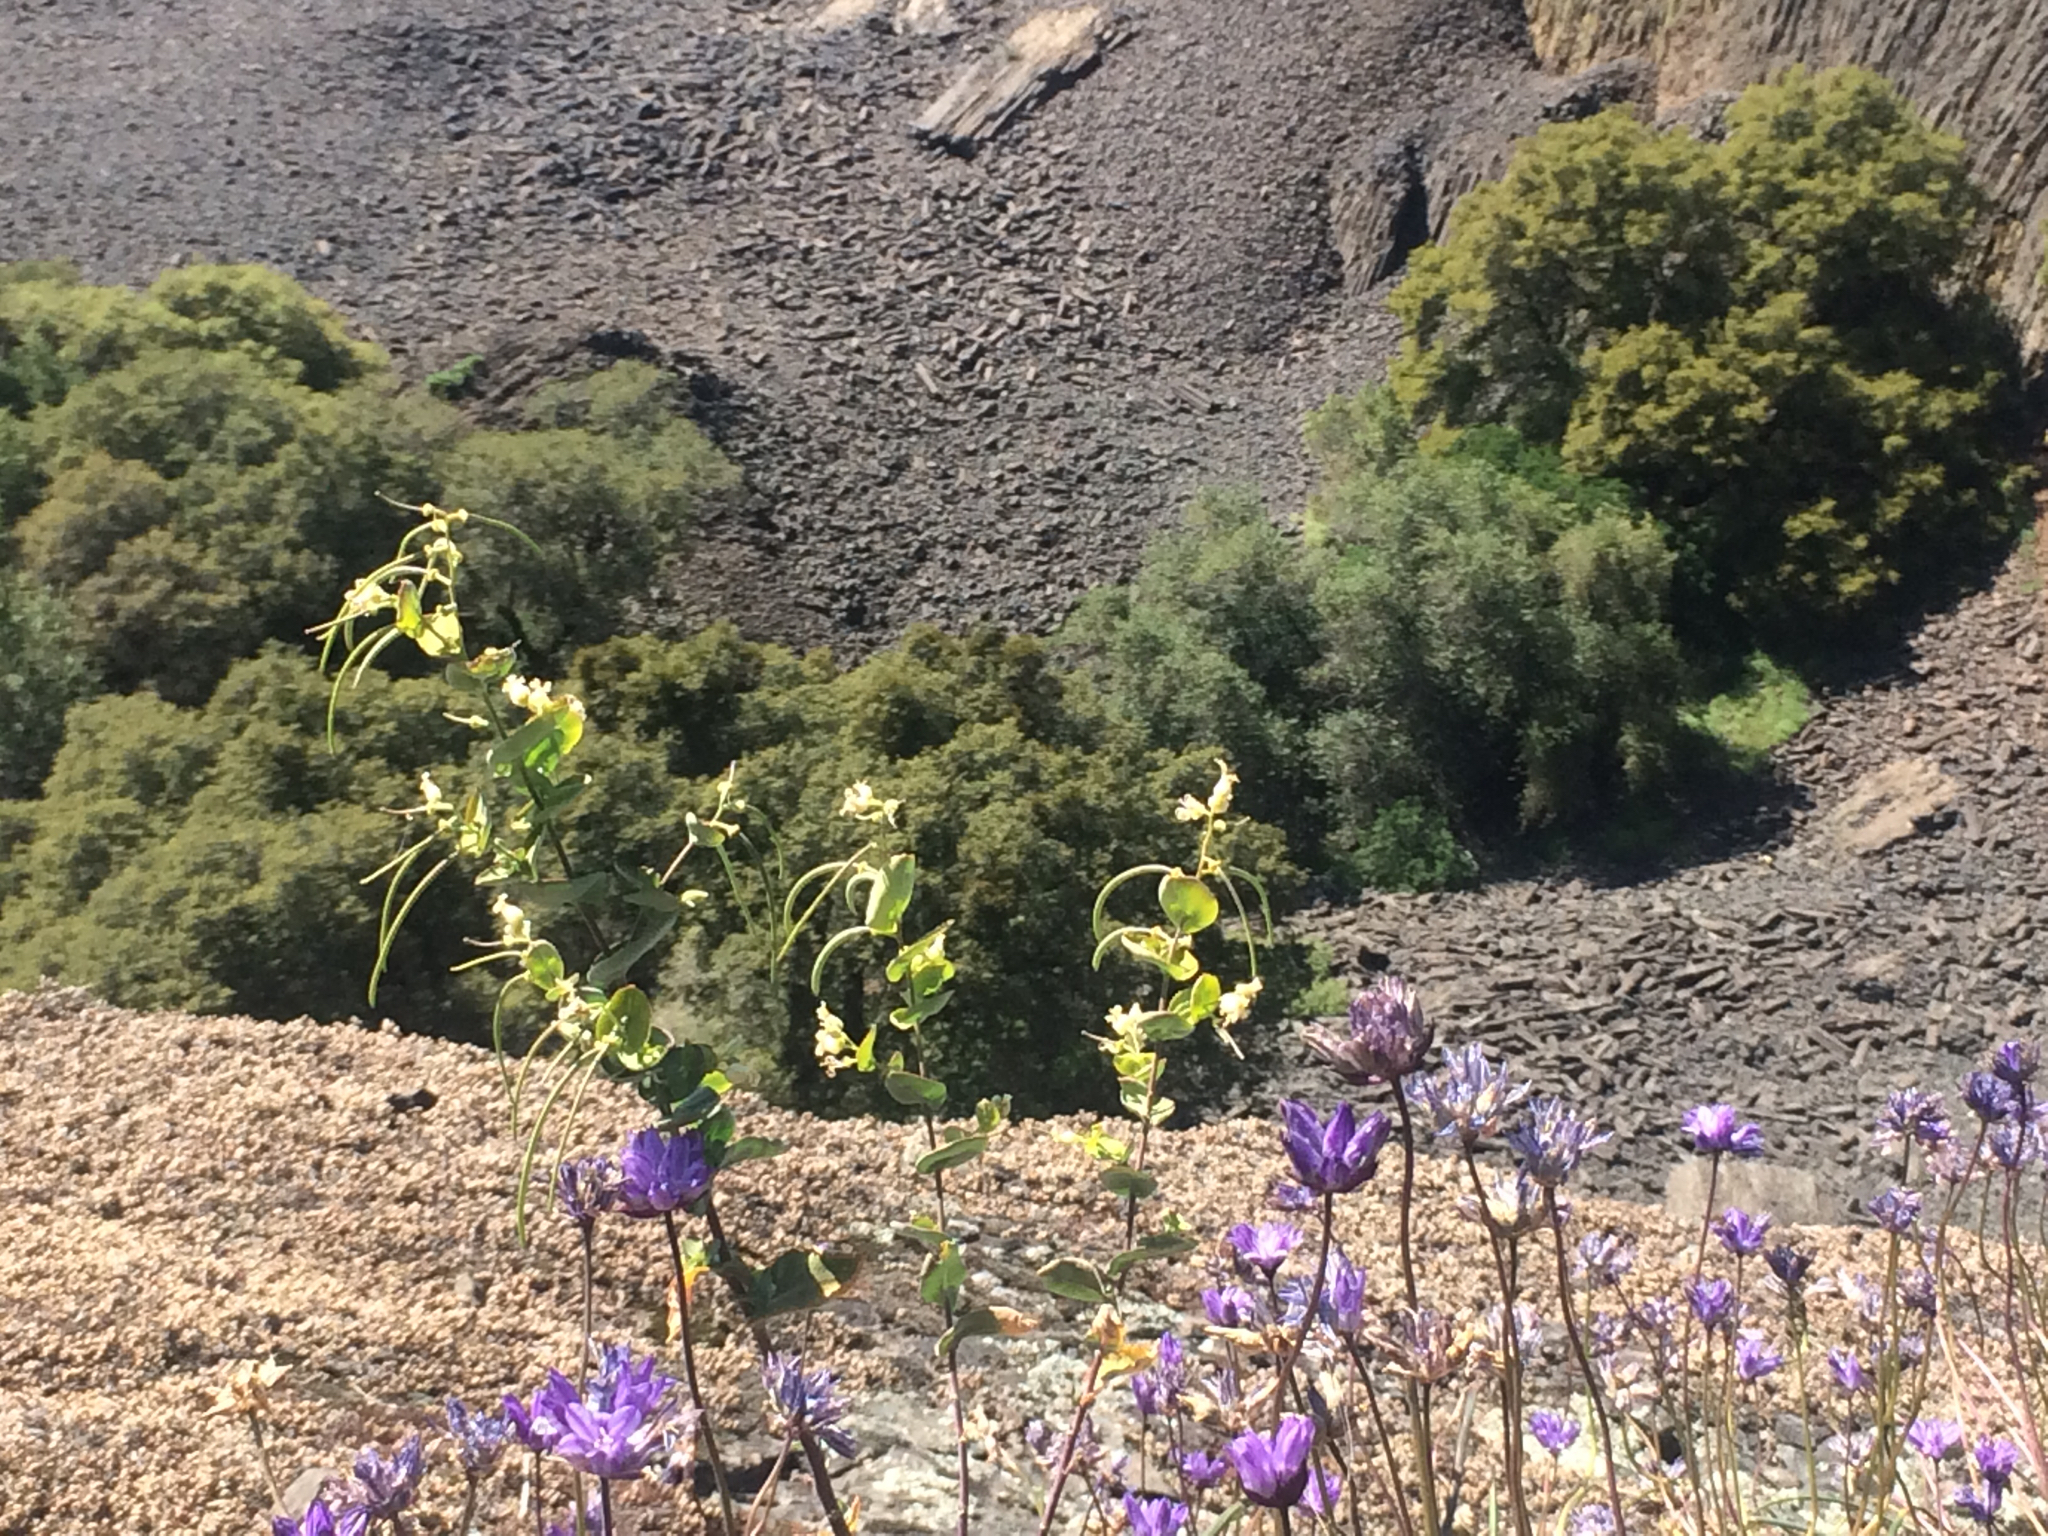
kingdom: Plantae
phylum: Tracheophyta
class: Magnoliopsida
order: Brassicales
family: Brassicaceae
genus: Streptanthus
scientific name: Streptanthus tortuosus
